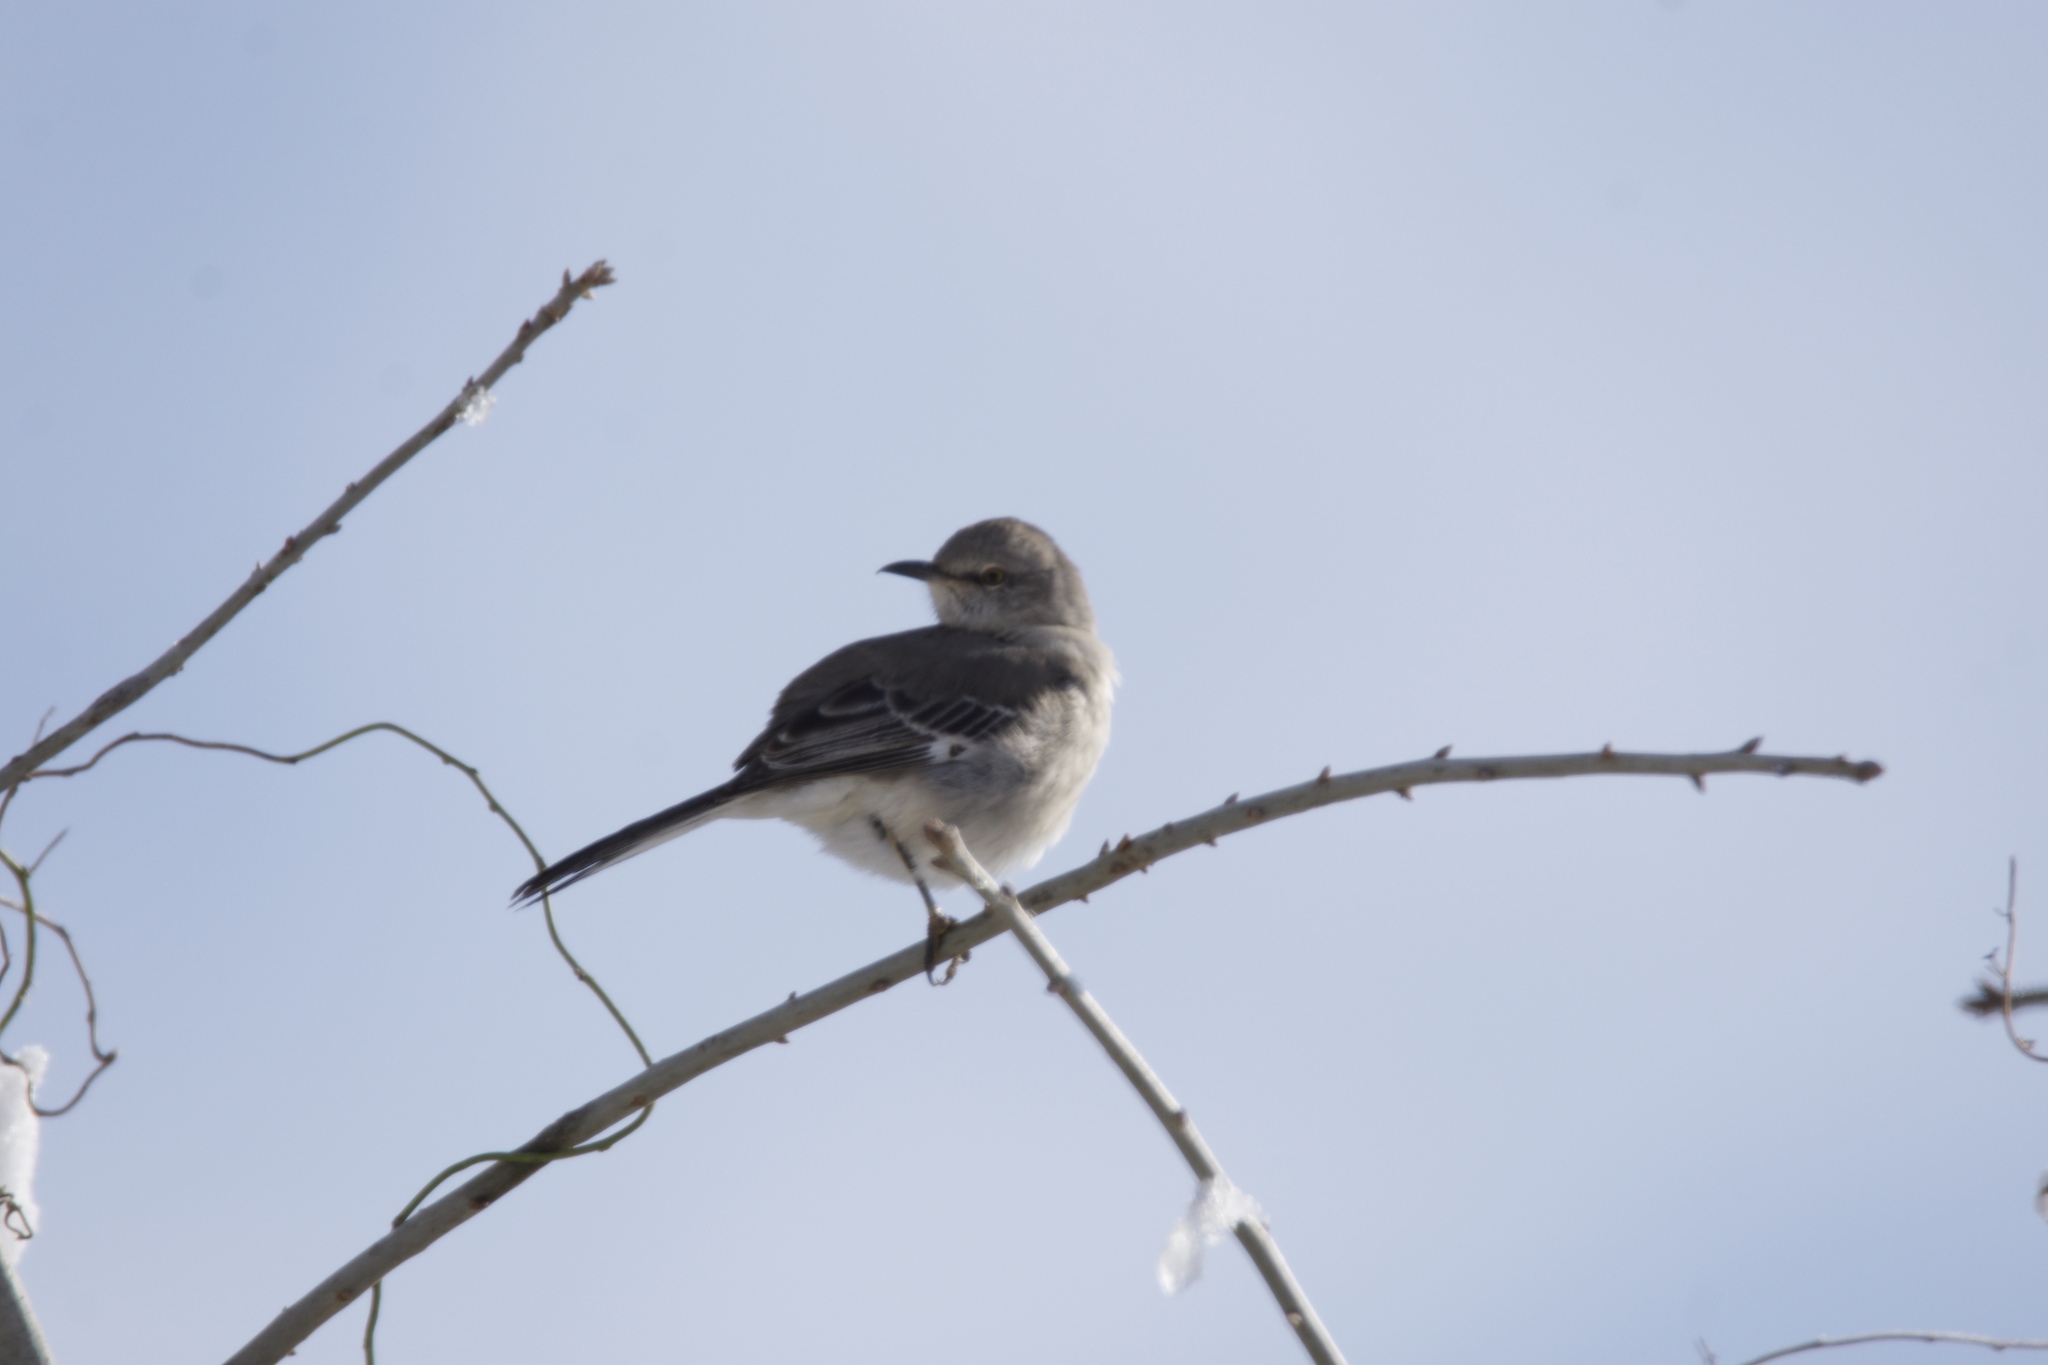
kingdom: Animalia
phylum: Chordata
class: Aves
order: Passeriformes
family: Mimidae
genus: Mimus
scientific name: Mimus polyglottos
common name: Northern mockingbird
